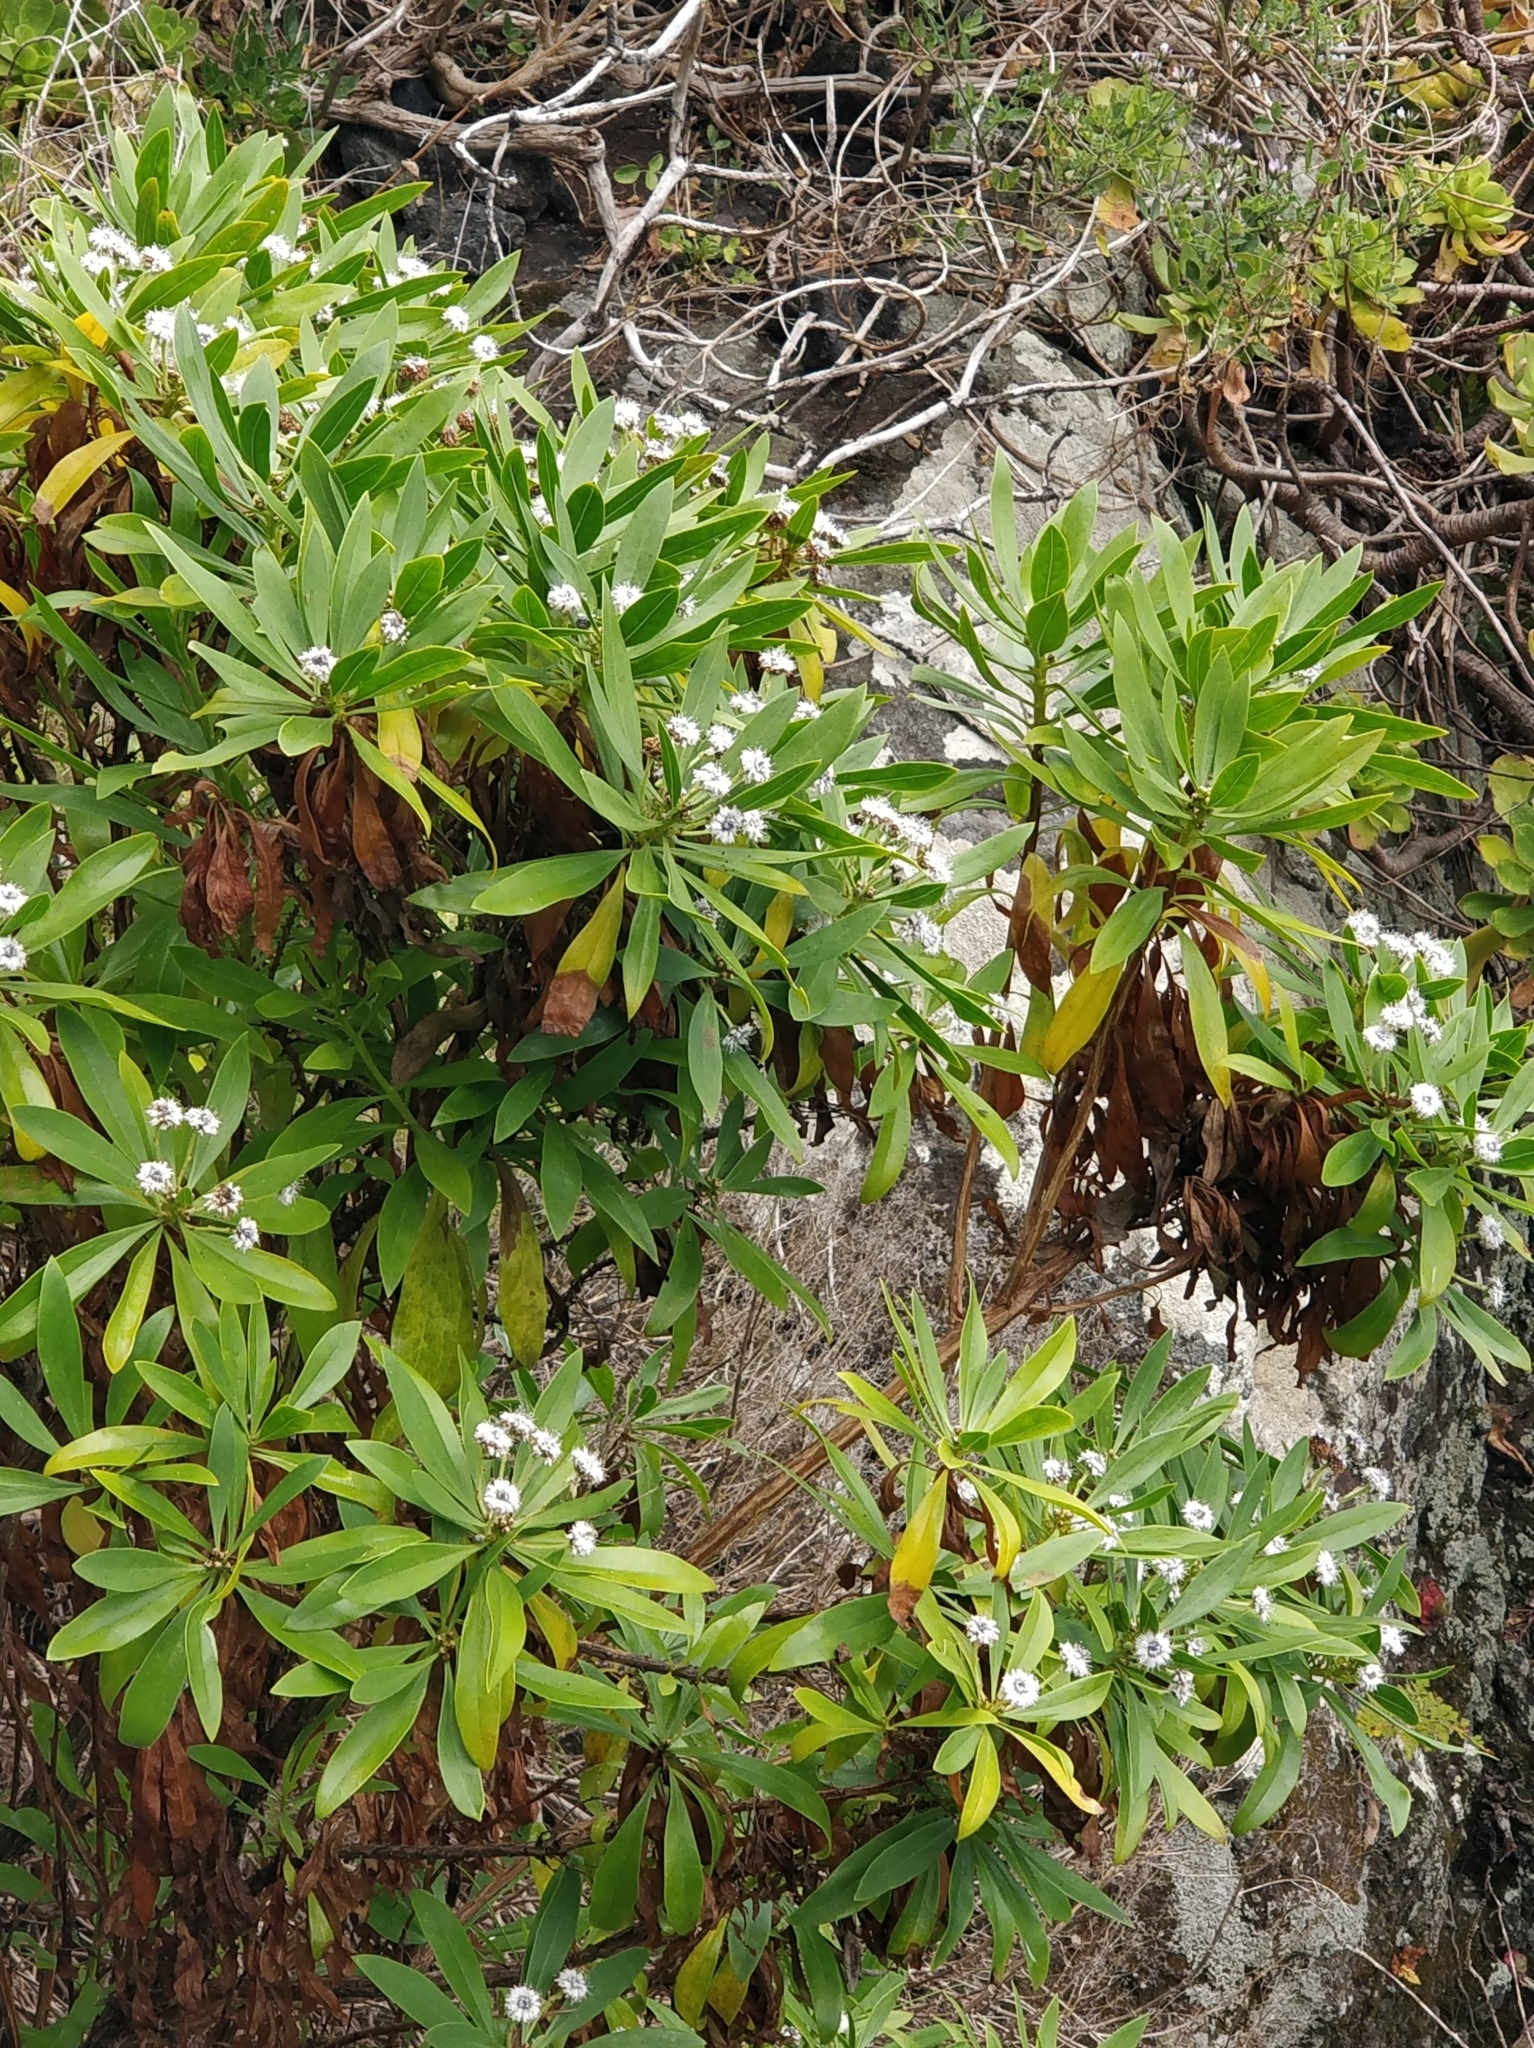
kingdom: Plantae
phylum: Tracheophyta
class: Magnoliopsida
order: Lamiales
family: Plantaginaceae
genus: Globularia
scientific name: Globularia salicina
